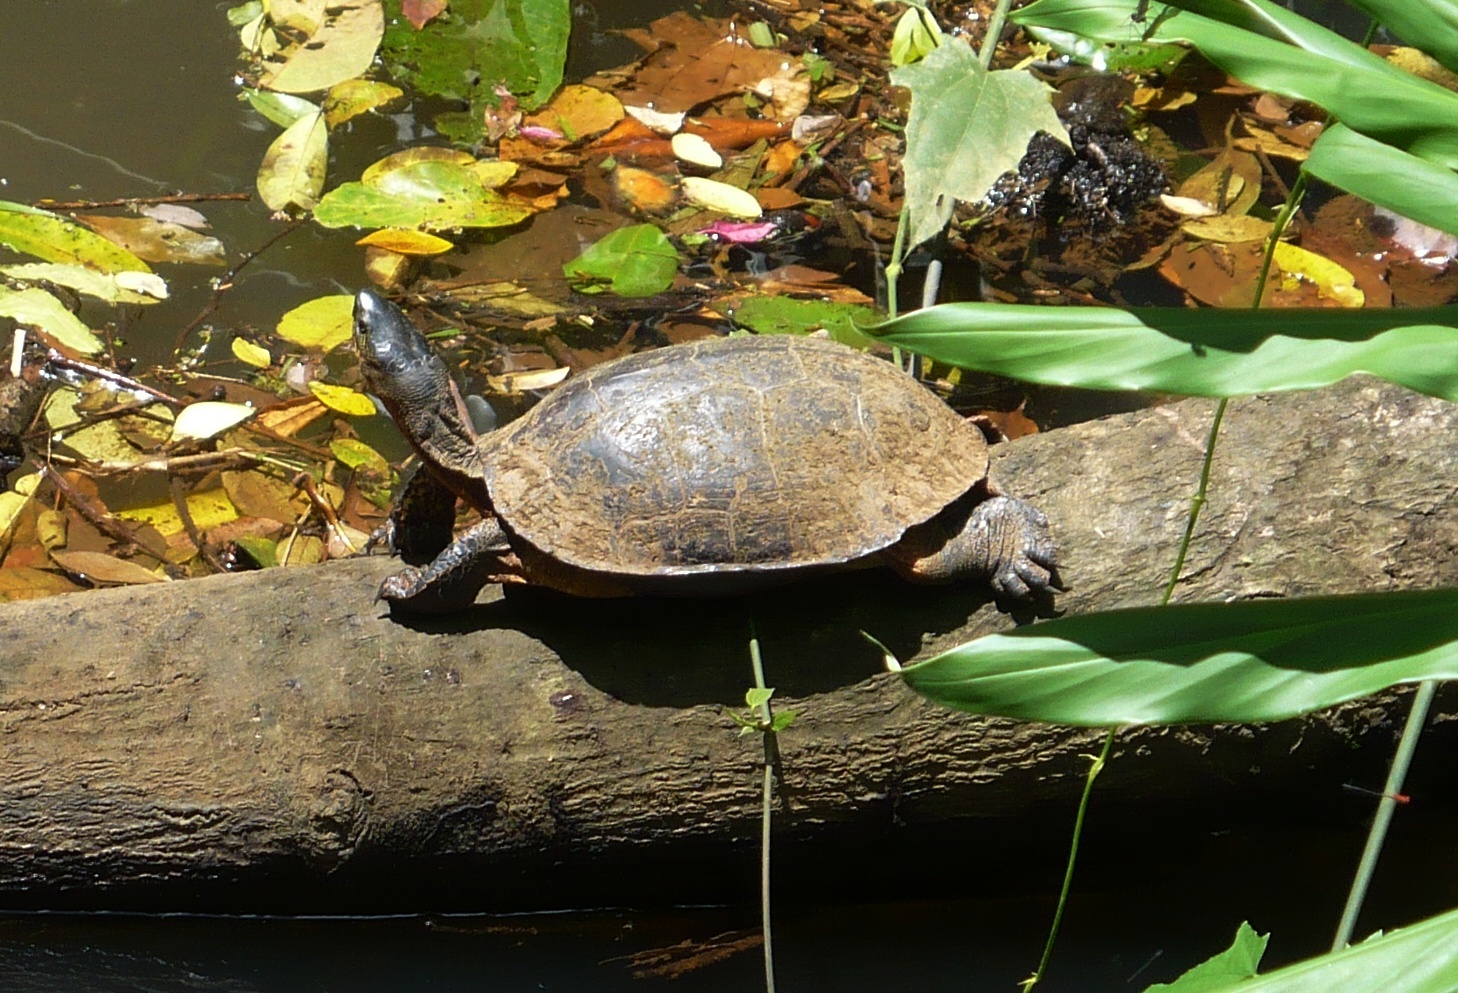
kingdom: Animalia
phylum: Chordata
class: Testudines
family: Geoemydidae
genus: Rhinoclemmys
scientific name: Rhinoclemmys funerea
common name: Black wood turtle
